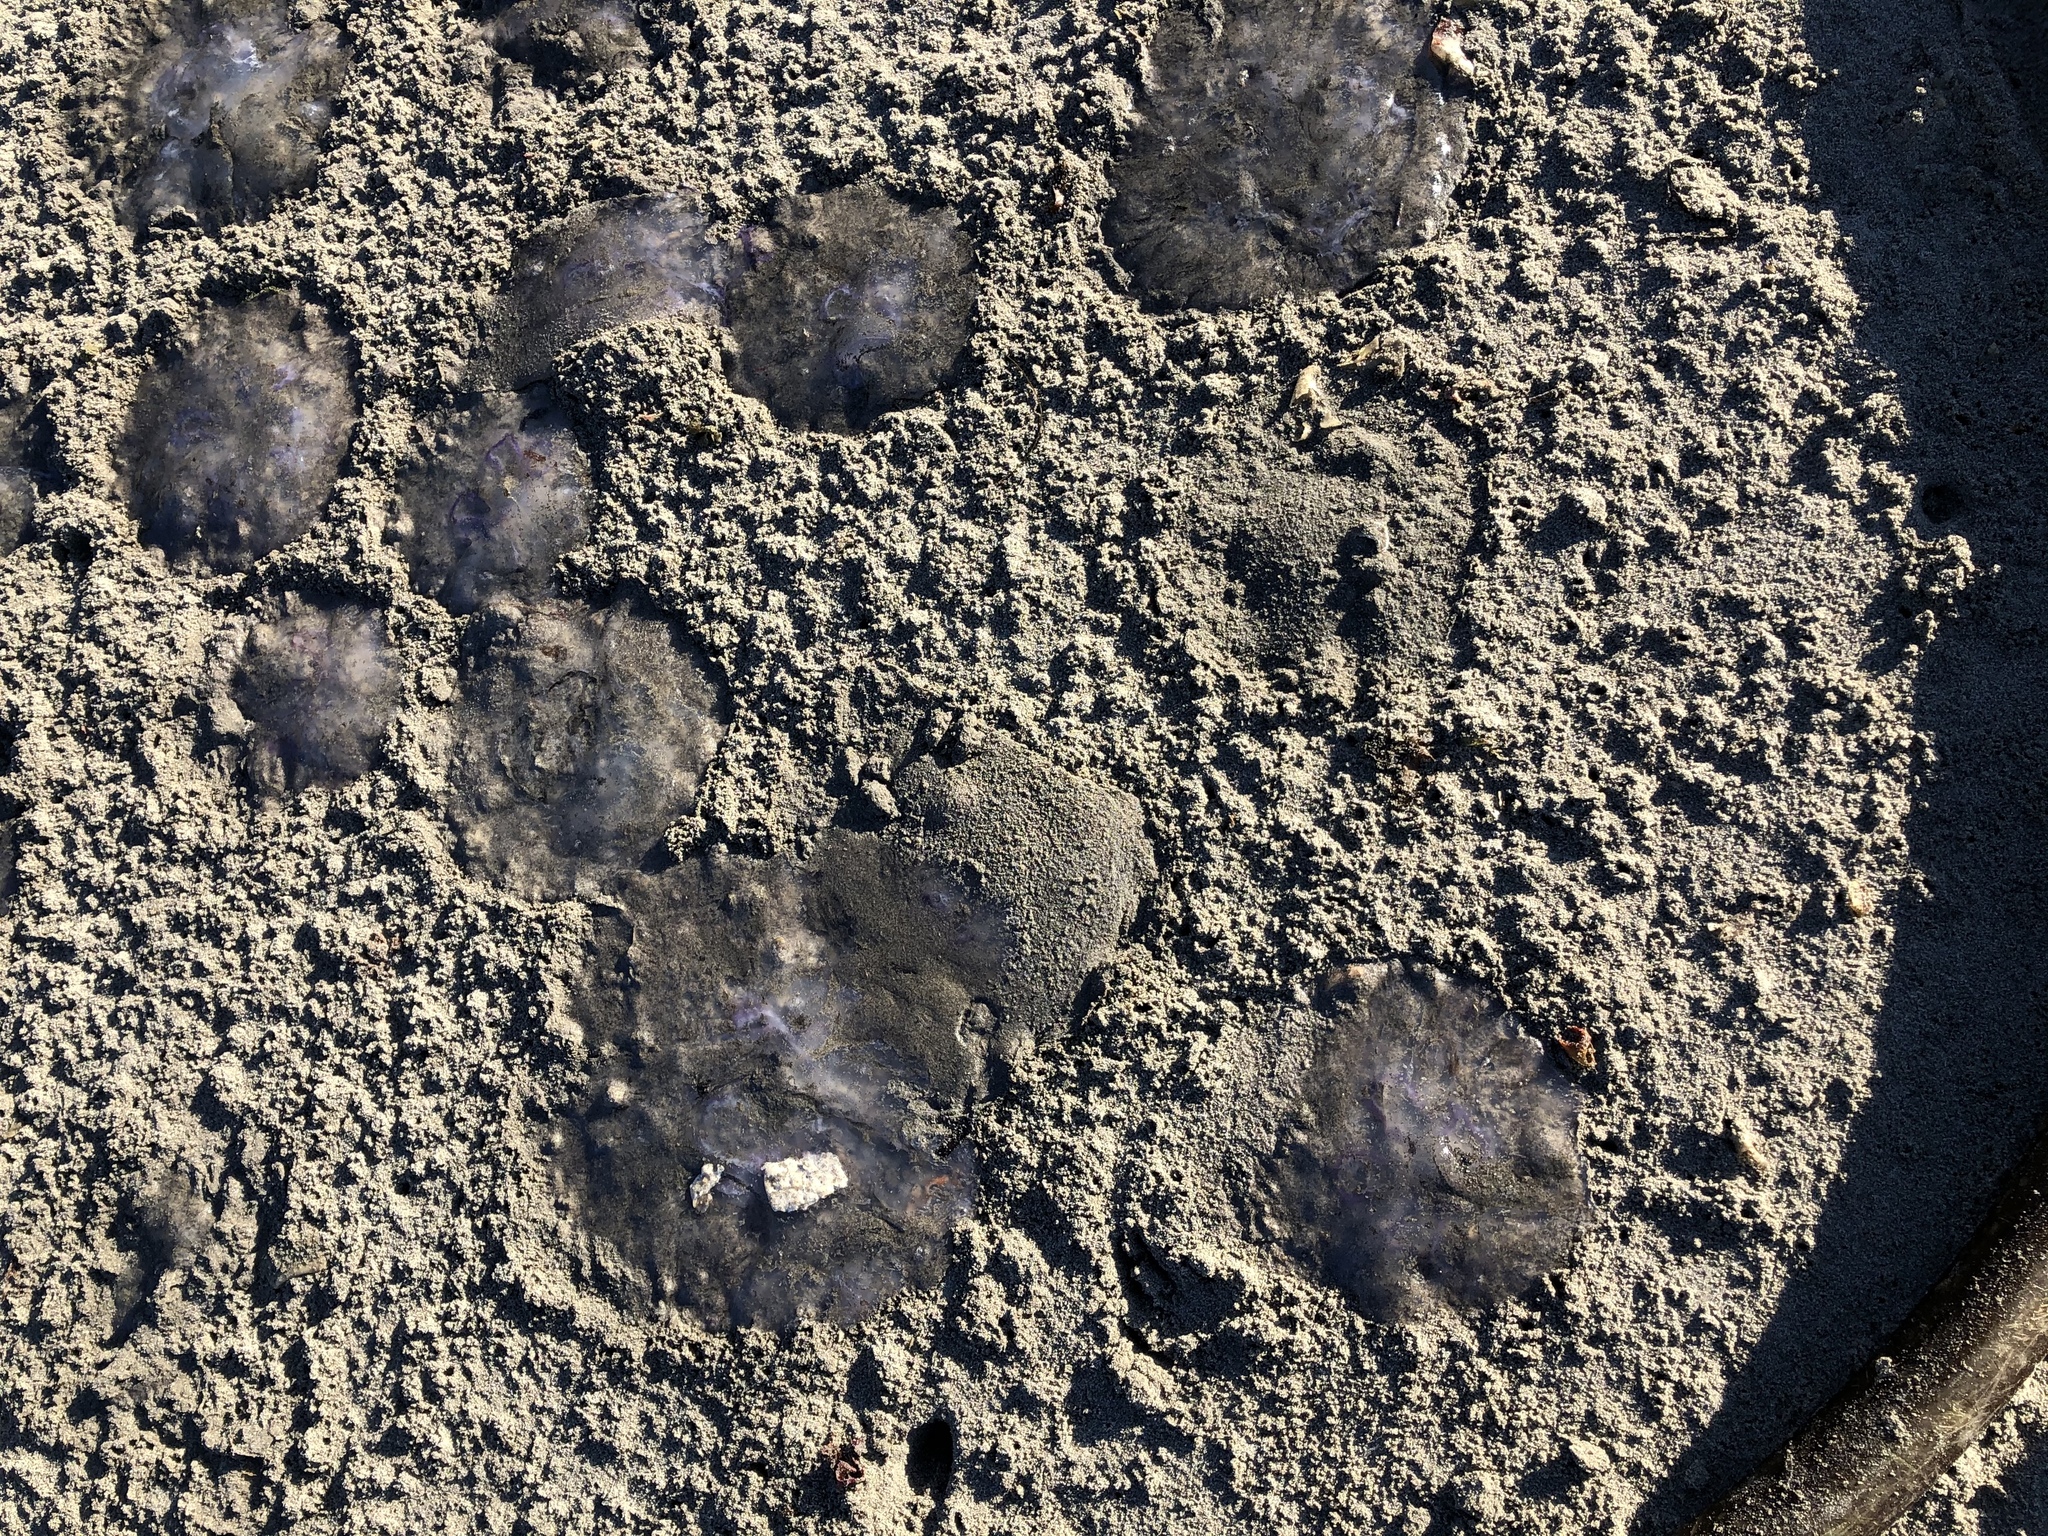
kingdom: Animalia
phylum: Cnidaria
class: Scyphozoa
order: Semaeostomeae
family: Ulmaridae
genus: Aurelia
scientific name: Aurelia labiata
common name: Pacific moon jelly
